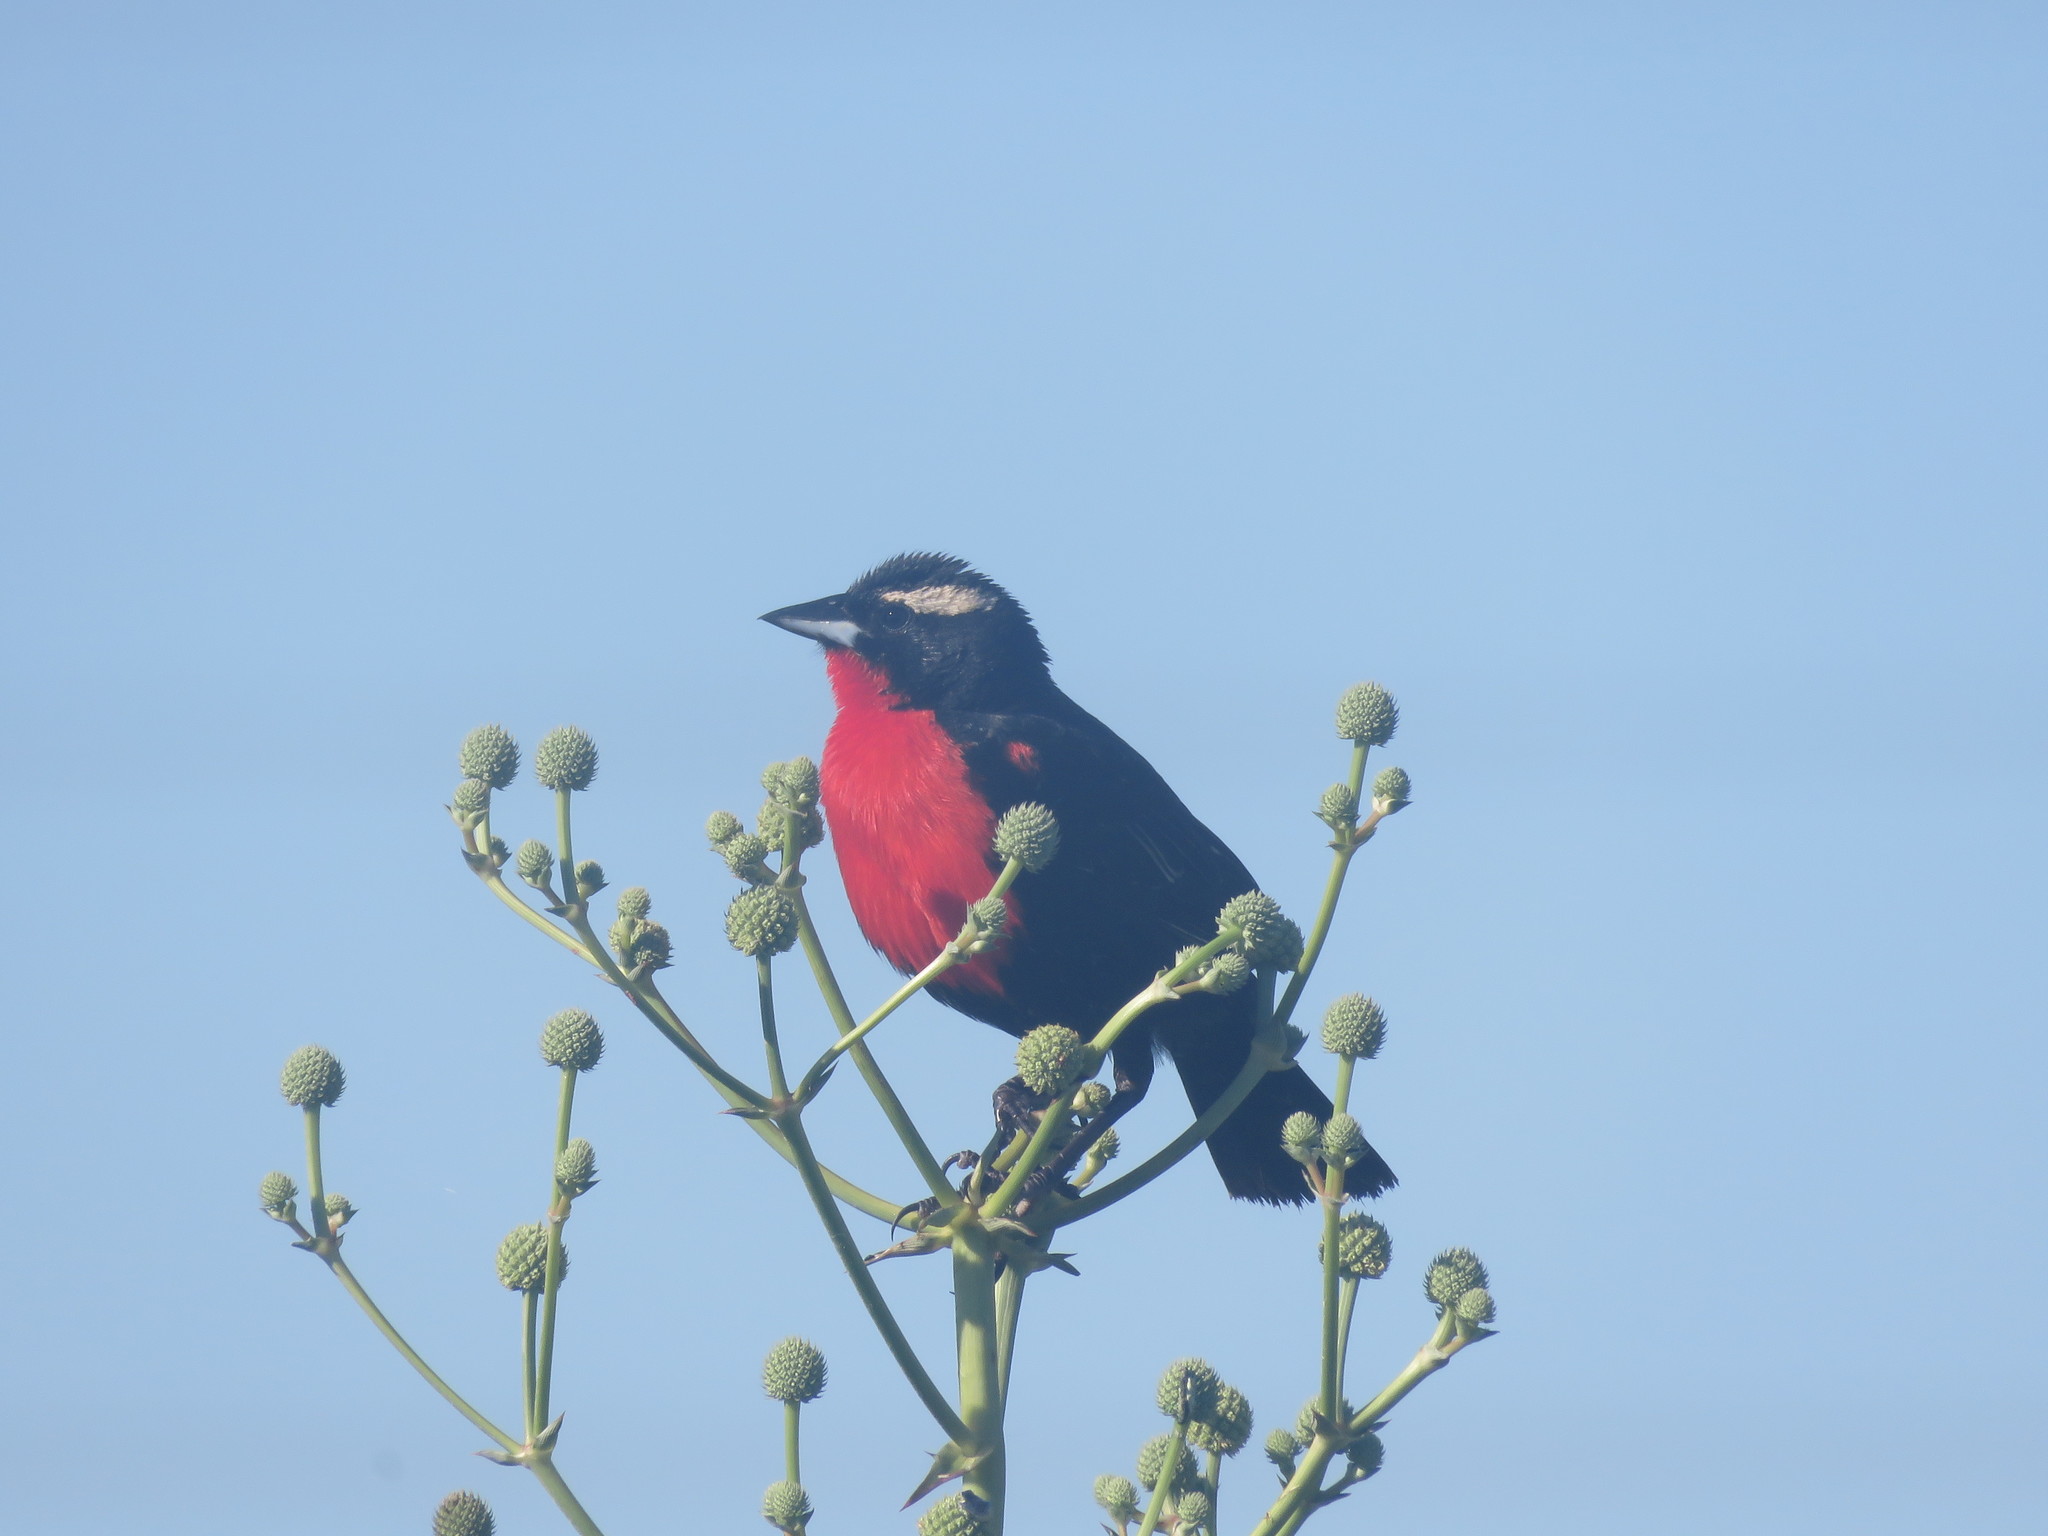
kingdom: Animalia
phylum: Chordata
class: Aves
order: Passeriformes
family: Icteridae
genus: Sturnella
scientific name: Sturnella superciliaris
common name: White-browed blackbird
